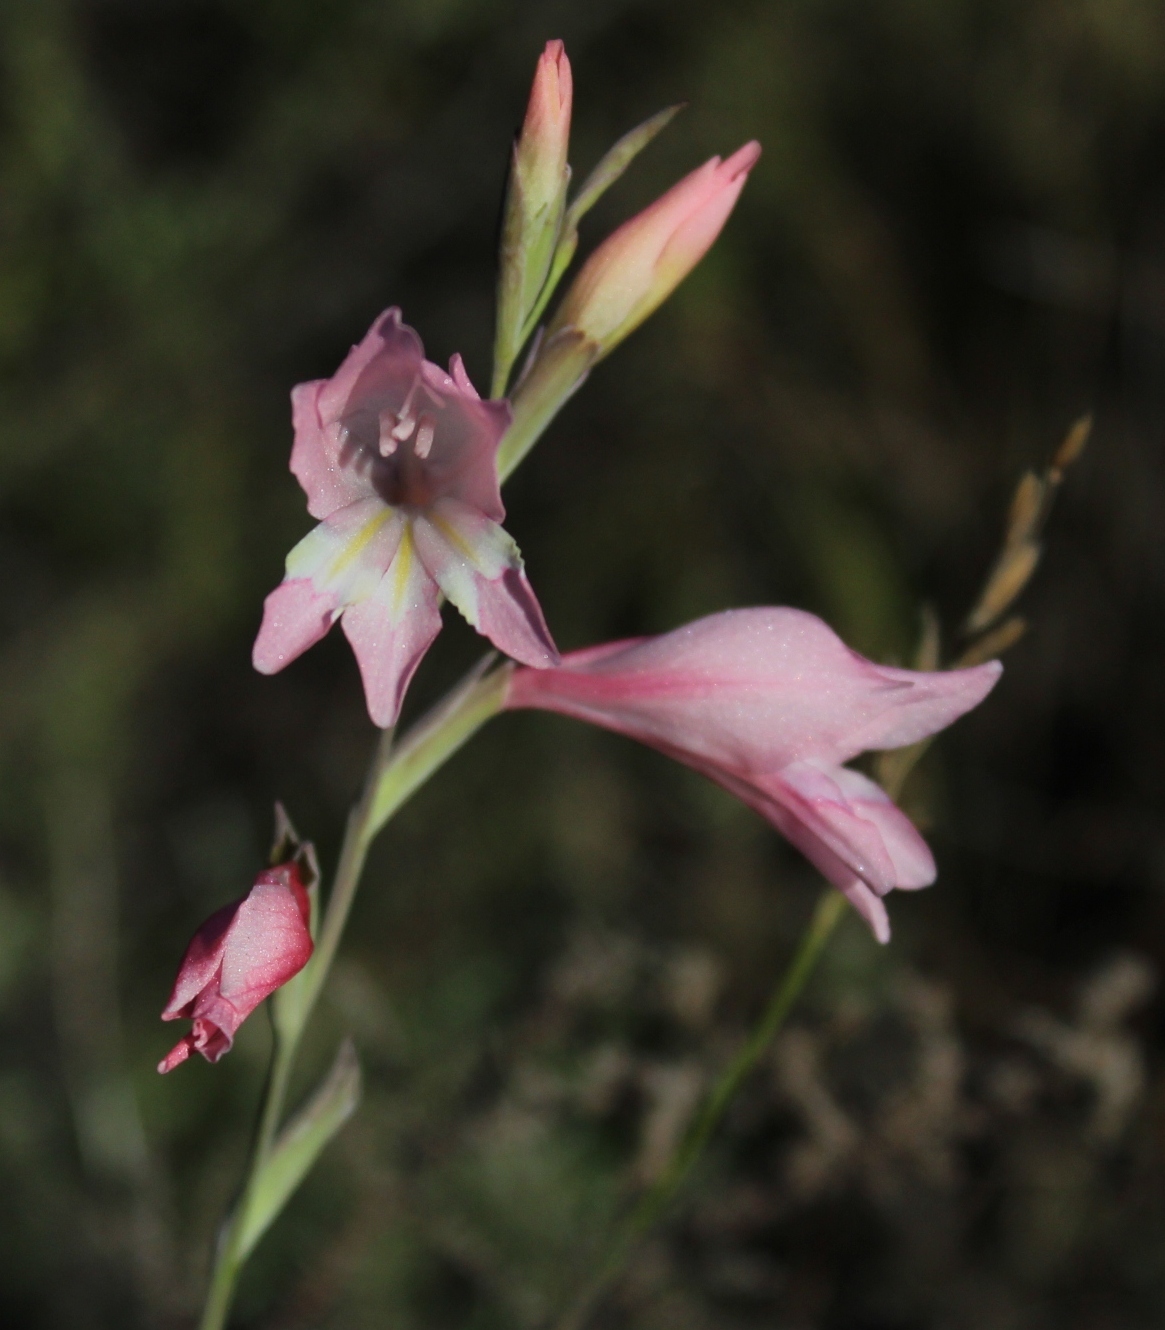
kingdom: Plantae
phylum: Tracheophyta
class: Liliopsida
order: Asparagales
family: Iridaceae
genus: Gladiolus
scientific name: Gladiolus brevifolius
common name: March pypie
